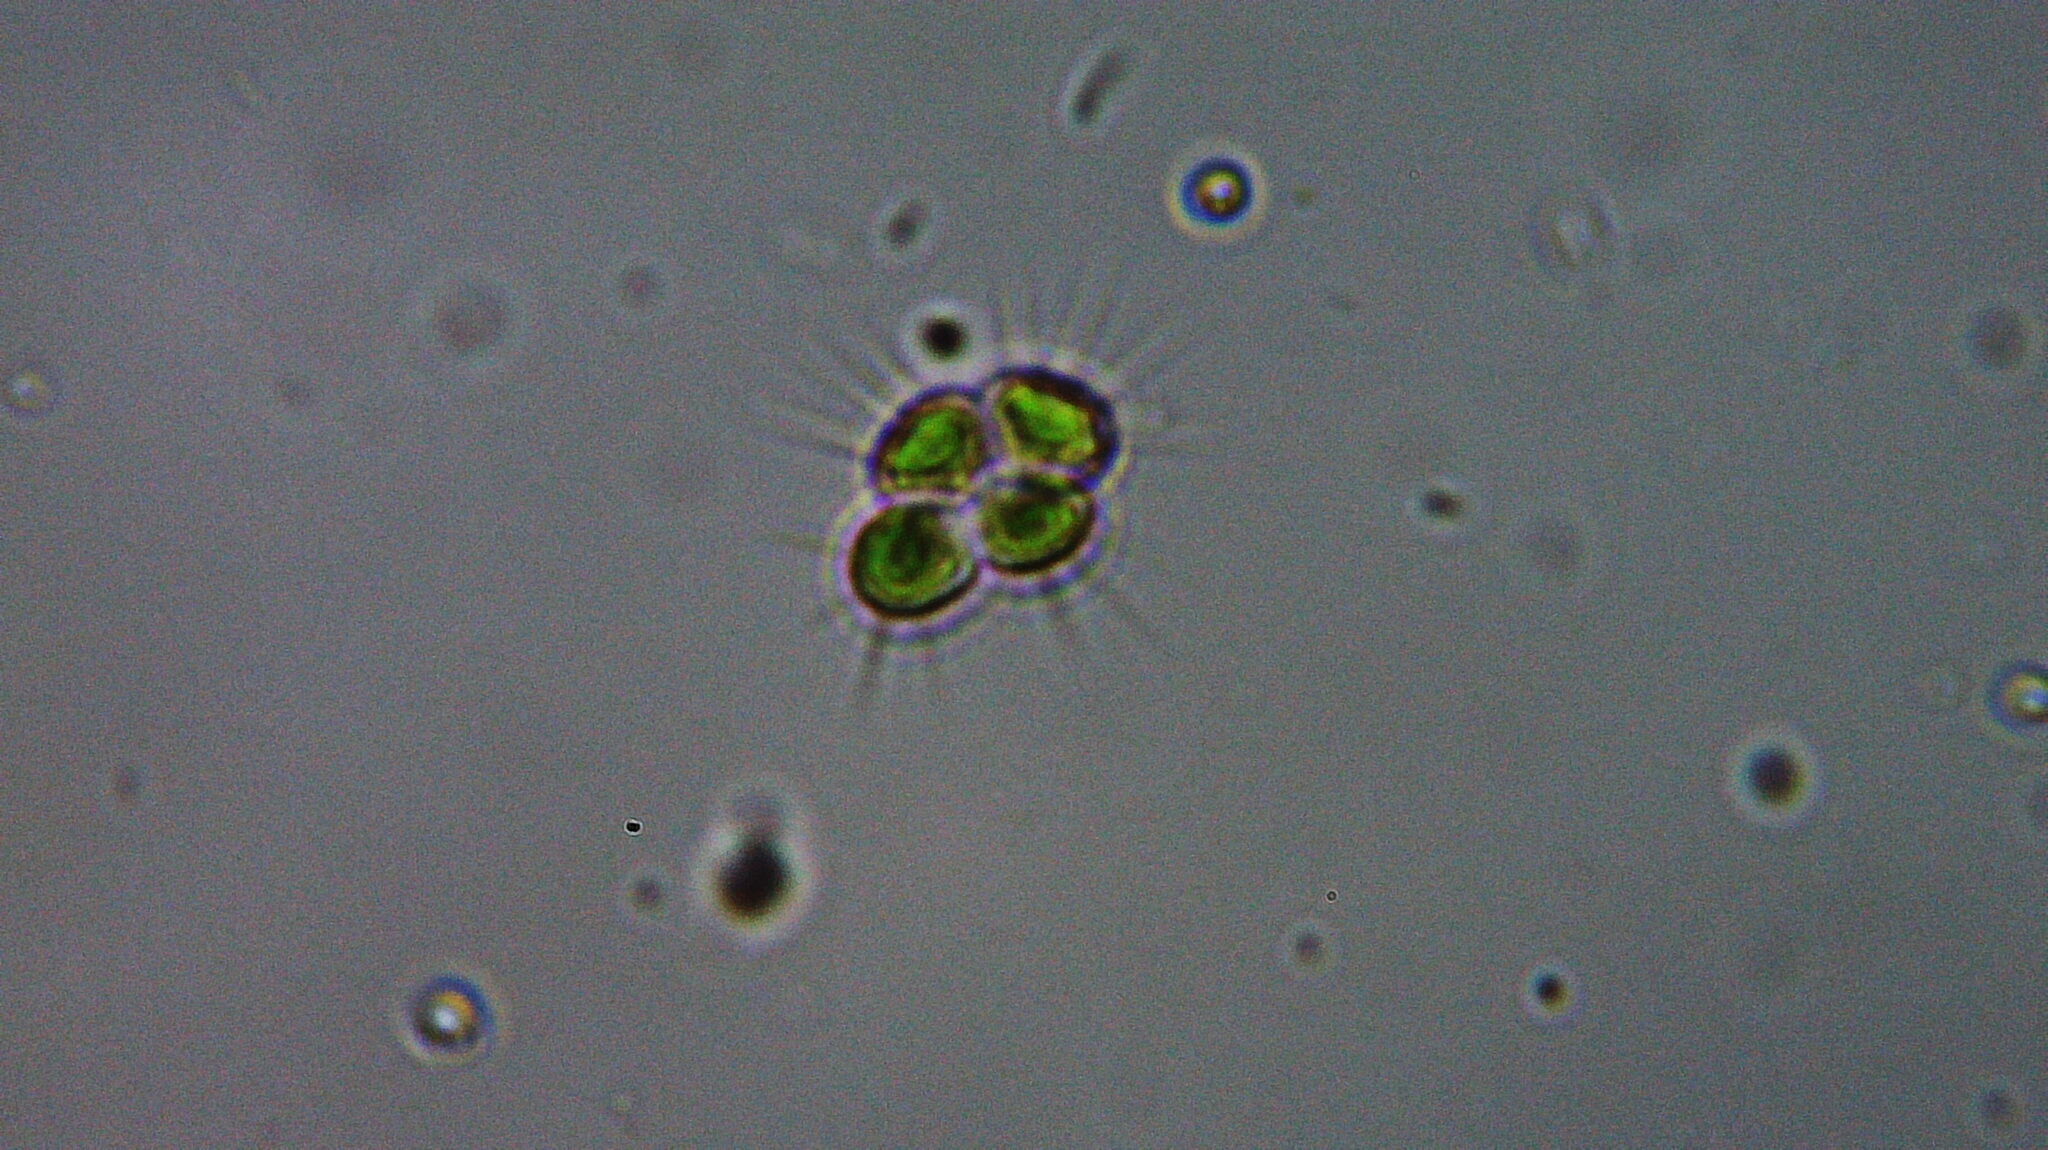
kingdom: Plantae
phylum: Chlorophyta
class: Chlorophyceae
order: Sphaeropleales
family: Scenedesmaceae
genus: Tetrastrum
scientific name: Tetrastrum staurogeniiforme
